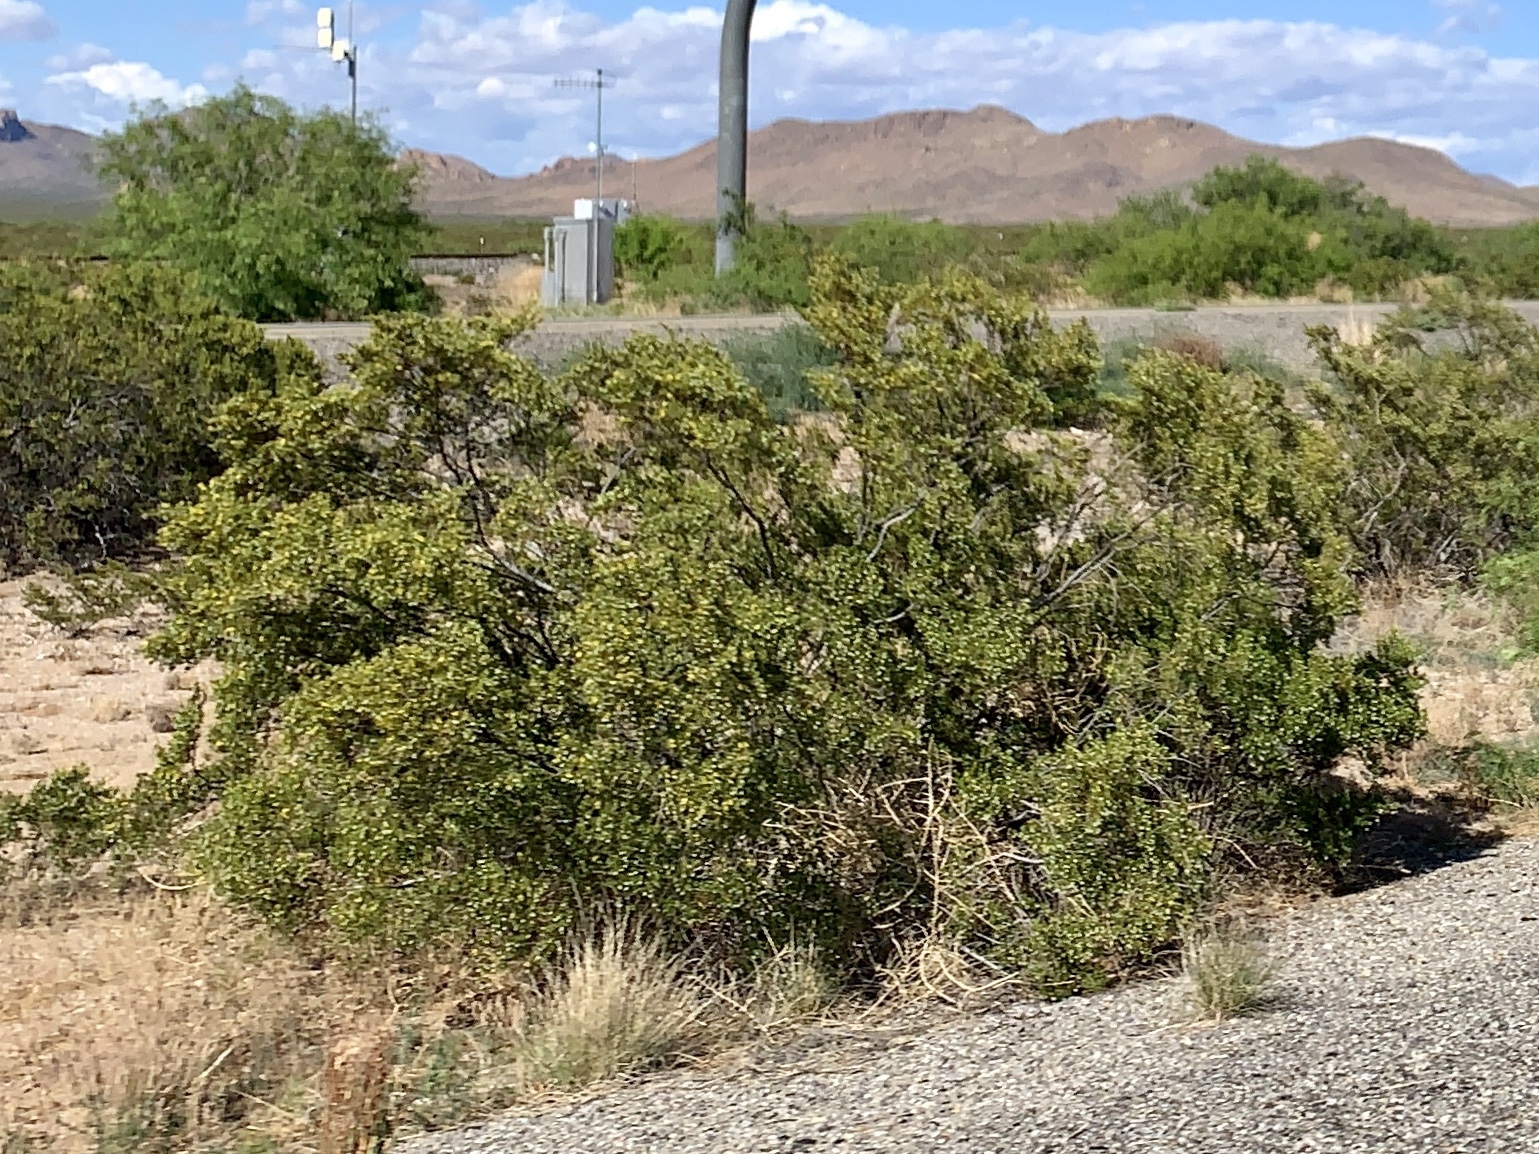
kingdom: Plantae
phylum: Tracheophyta
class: Magnoliopsida
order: Zygophyllales
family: Zygophyllaceae
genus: Larrea
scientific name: Larrea tridentata
